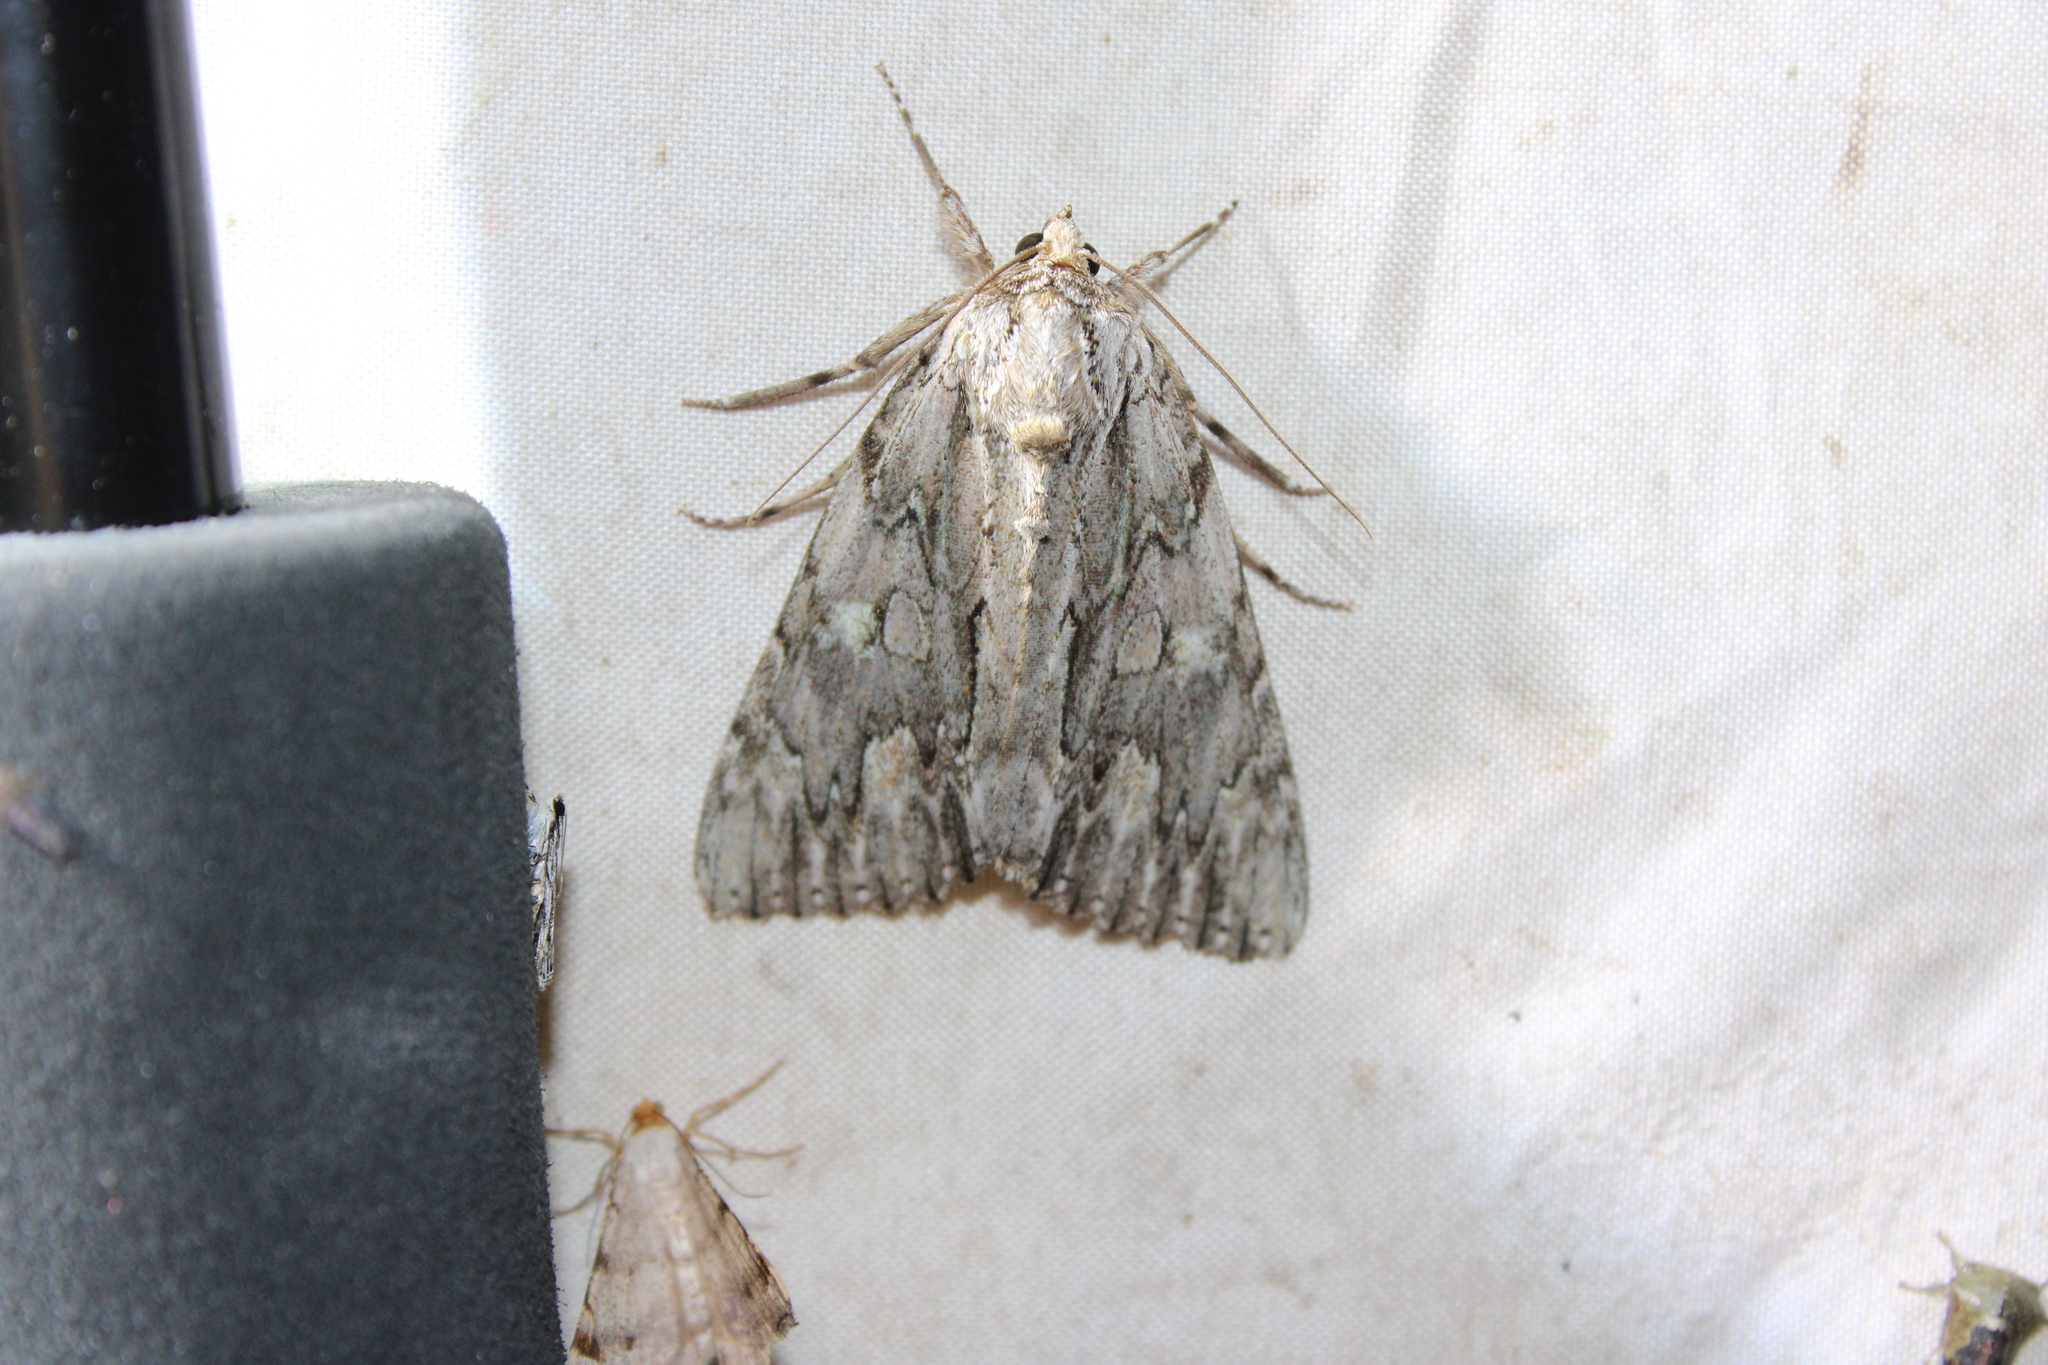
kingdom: Animalia
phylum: Arthropoda
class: Insecta
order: Lepidoptera
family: Erebidae
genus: Catocala
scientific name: Catocala coccinata
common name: Scarlet underwing
